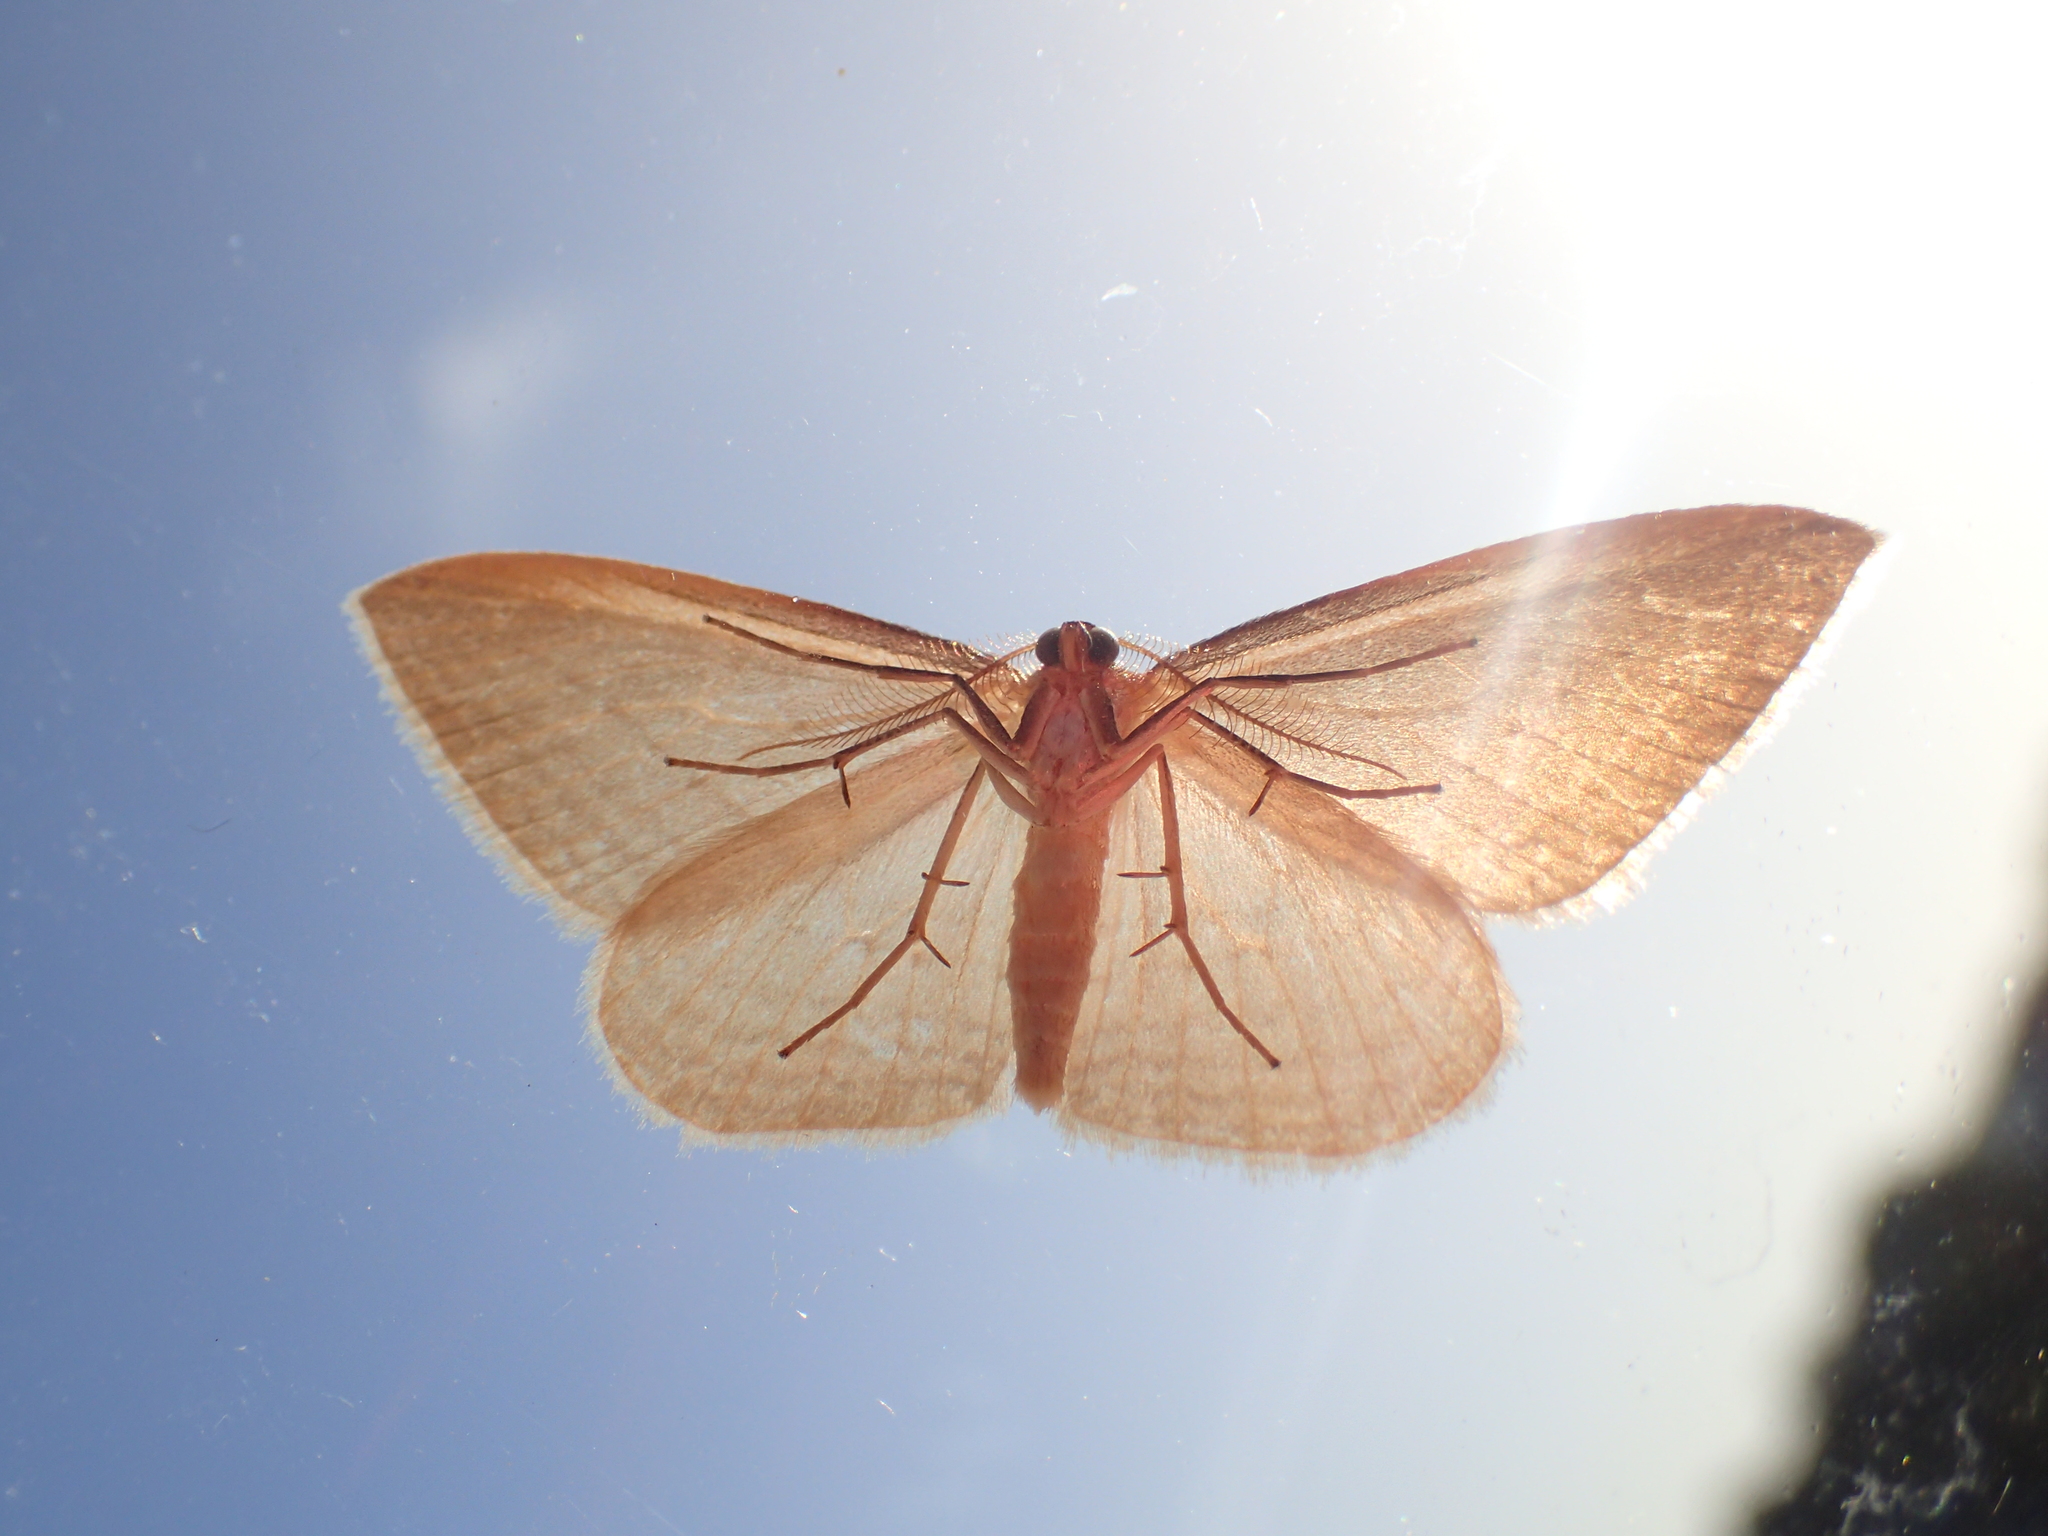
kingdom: Animalia
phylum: Arthropoda
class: Insecta
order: Lepidoptera
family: Geometridae
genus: Orthoclydon
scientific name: Orthoclydon praefectata
